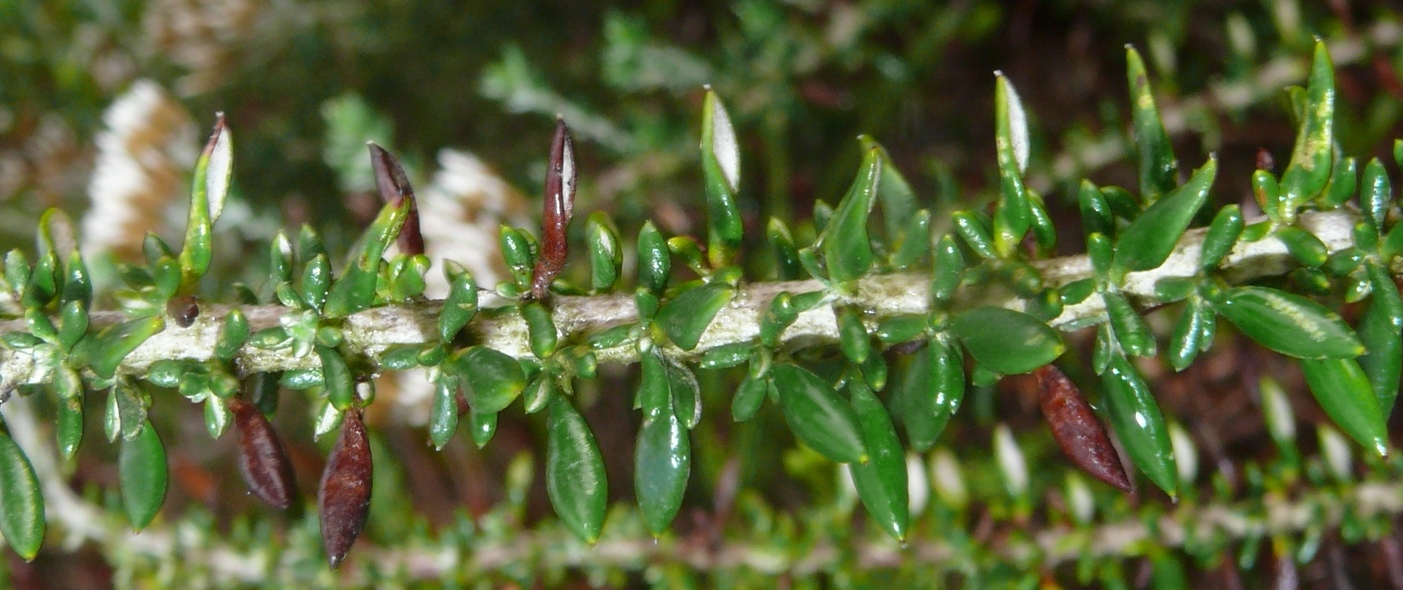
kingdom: Plantae
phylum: Tracheophyta
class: Magnoliopsida
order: Asterales
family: Asteraceae
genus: Metalasia
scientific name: Metalasia densa
